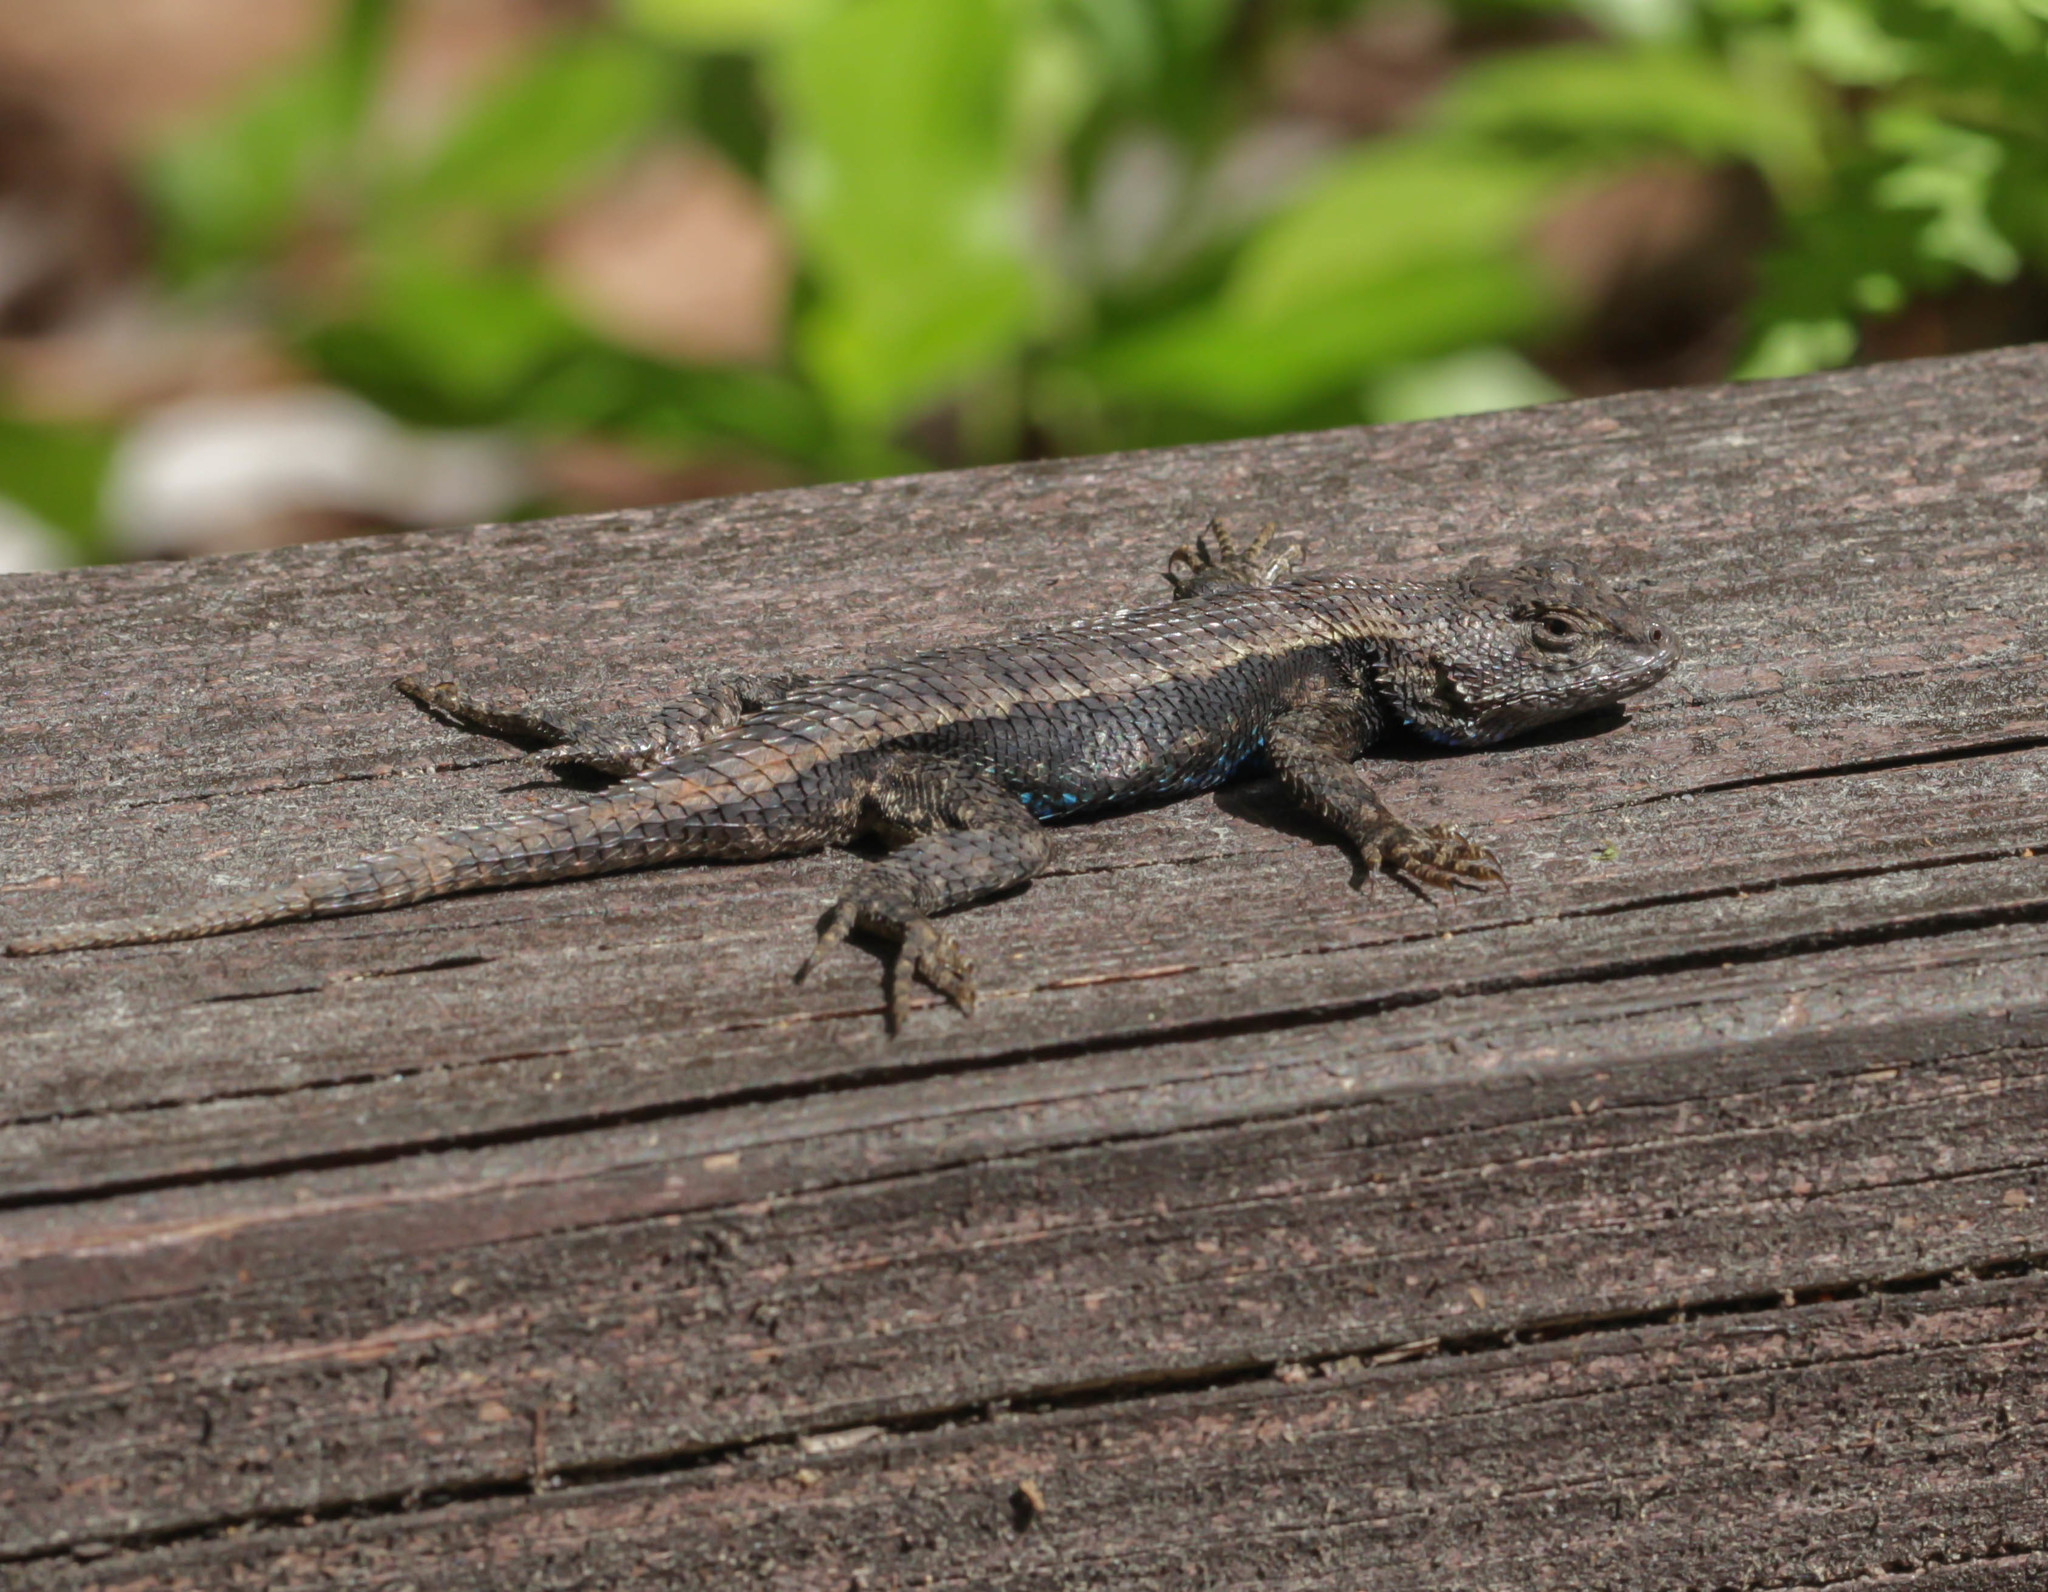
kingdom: Animalia
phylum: Chordata
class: Squamata
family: Phrynosomatidae
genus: Sceloporus
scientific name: Sceloporus consobrinus
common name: Southern prairie lizard
